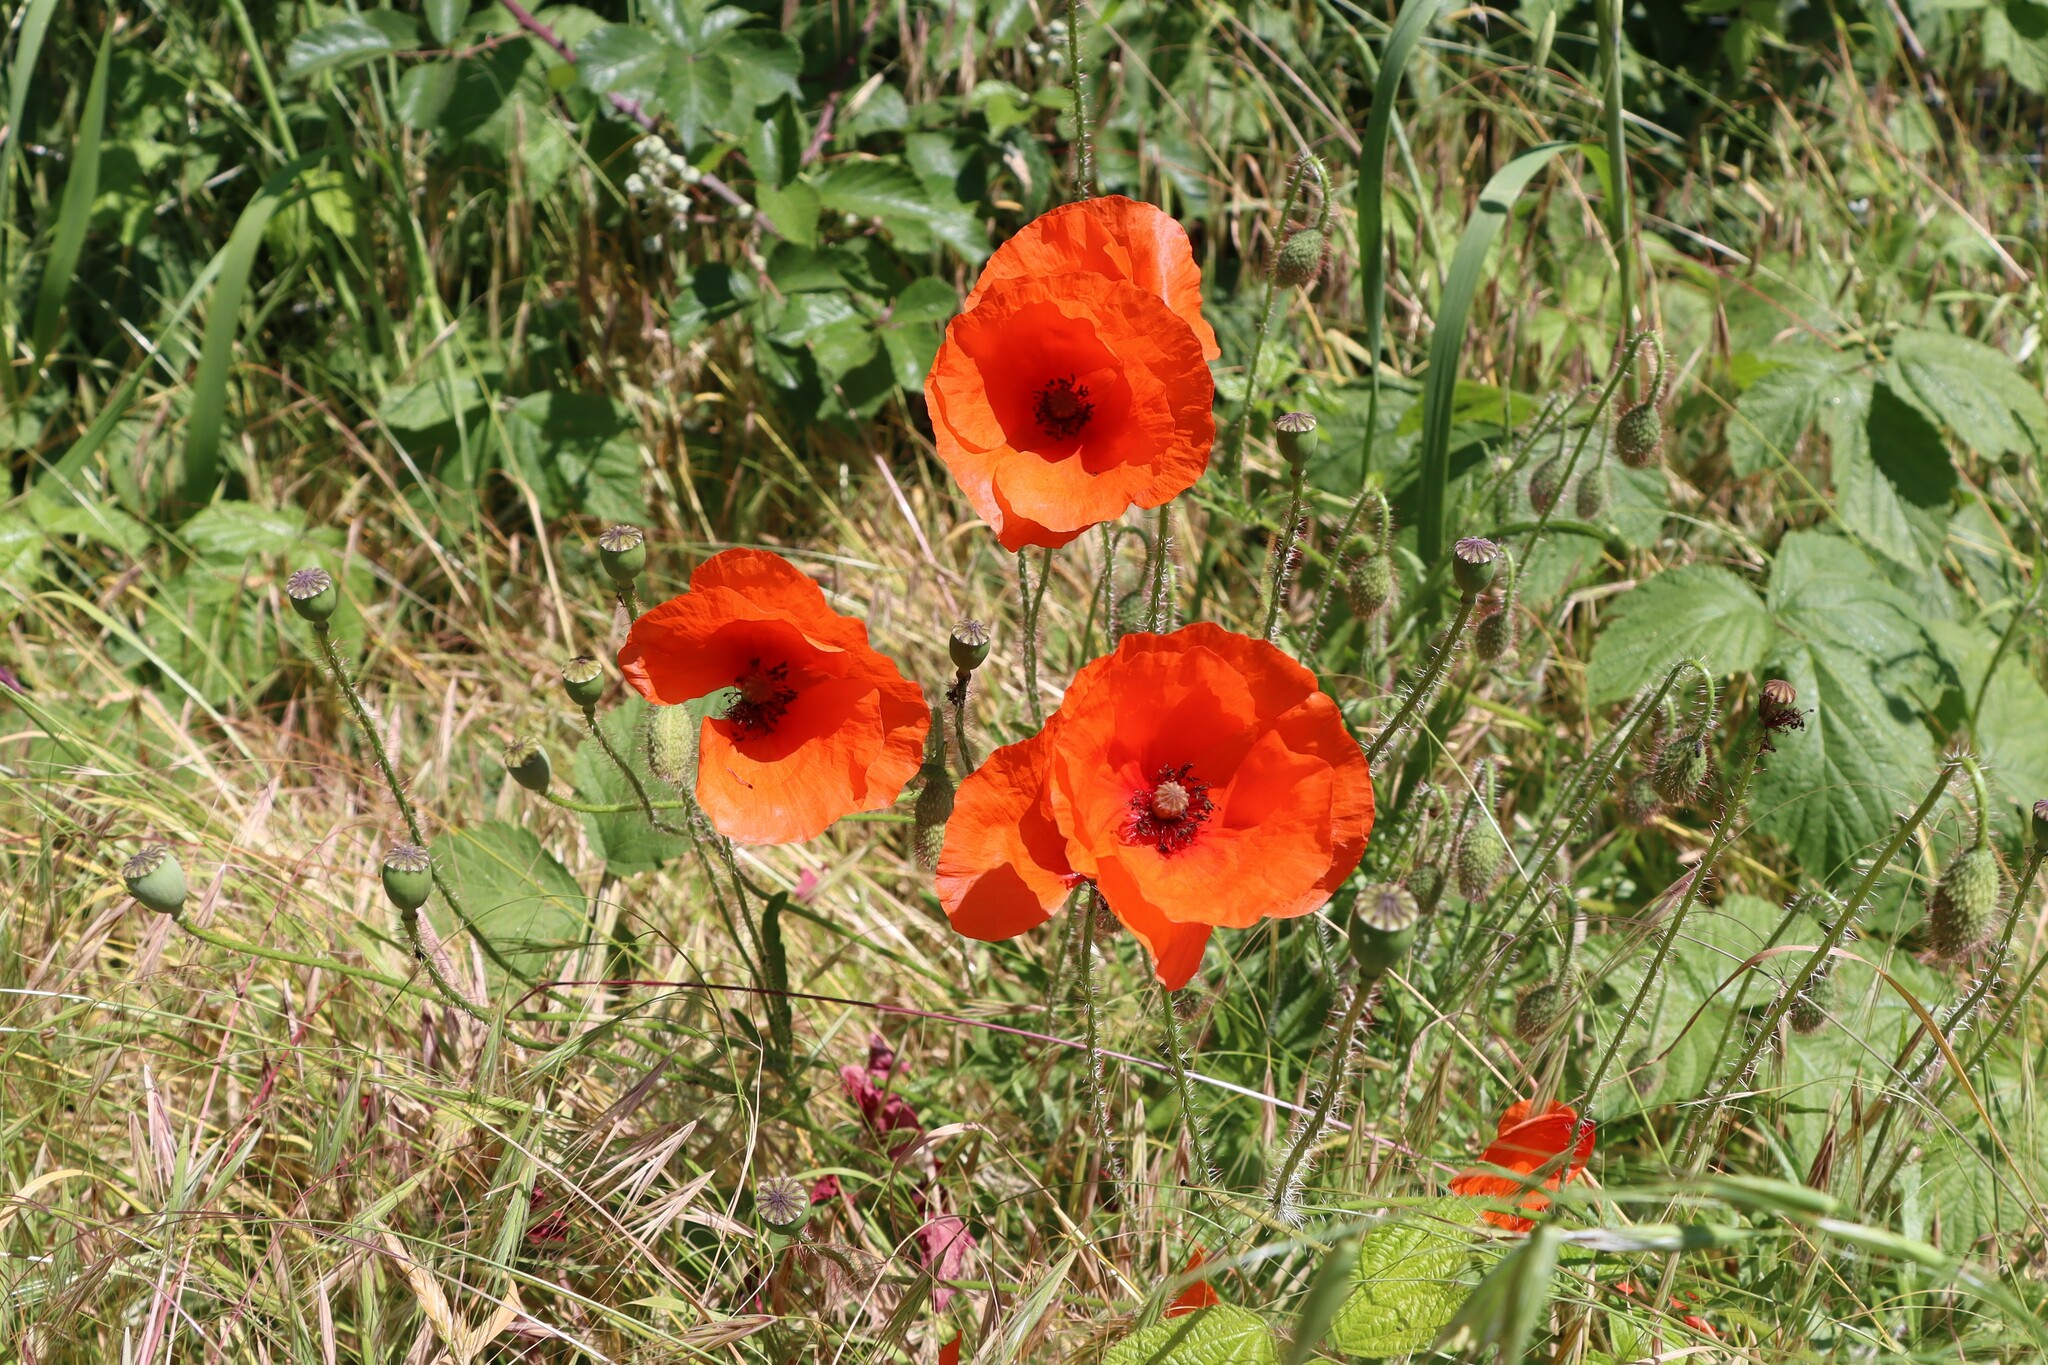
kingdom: Plantae
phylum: Tracheophyta
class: Magnoliopsida
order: Ranunculales
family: Papaveraceae
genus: Papaver
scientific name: Papaver rhoeas
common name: Corn poppy
